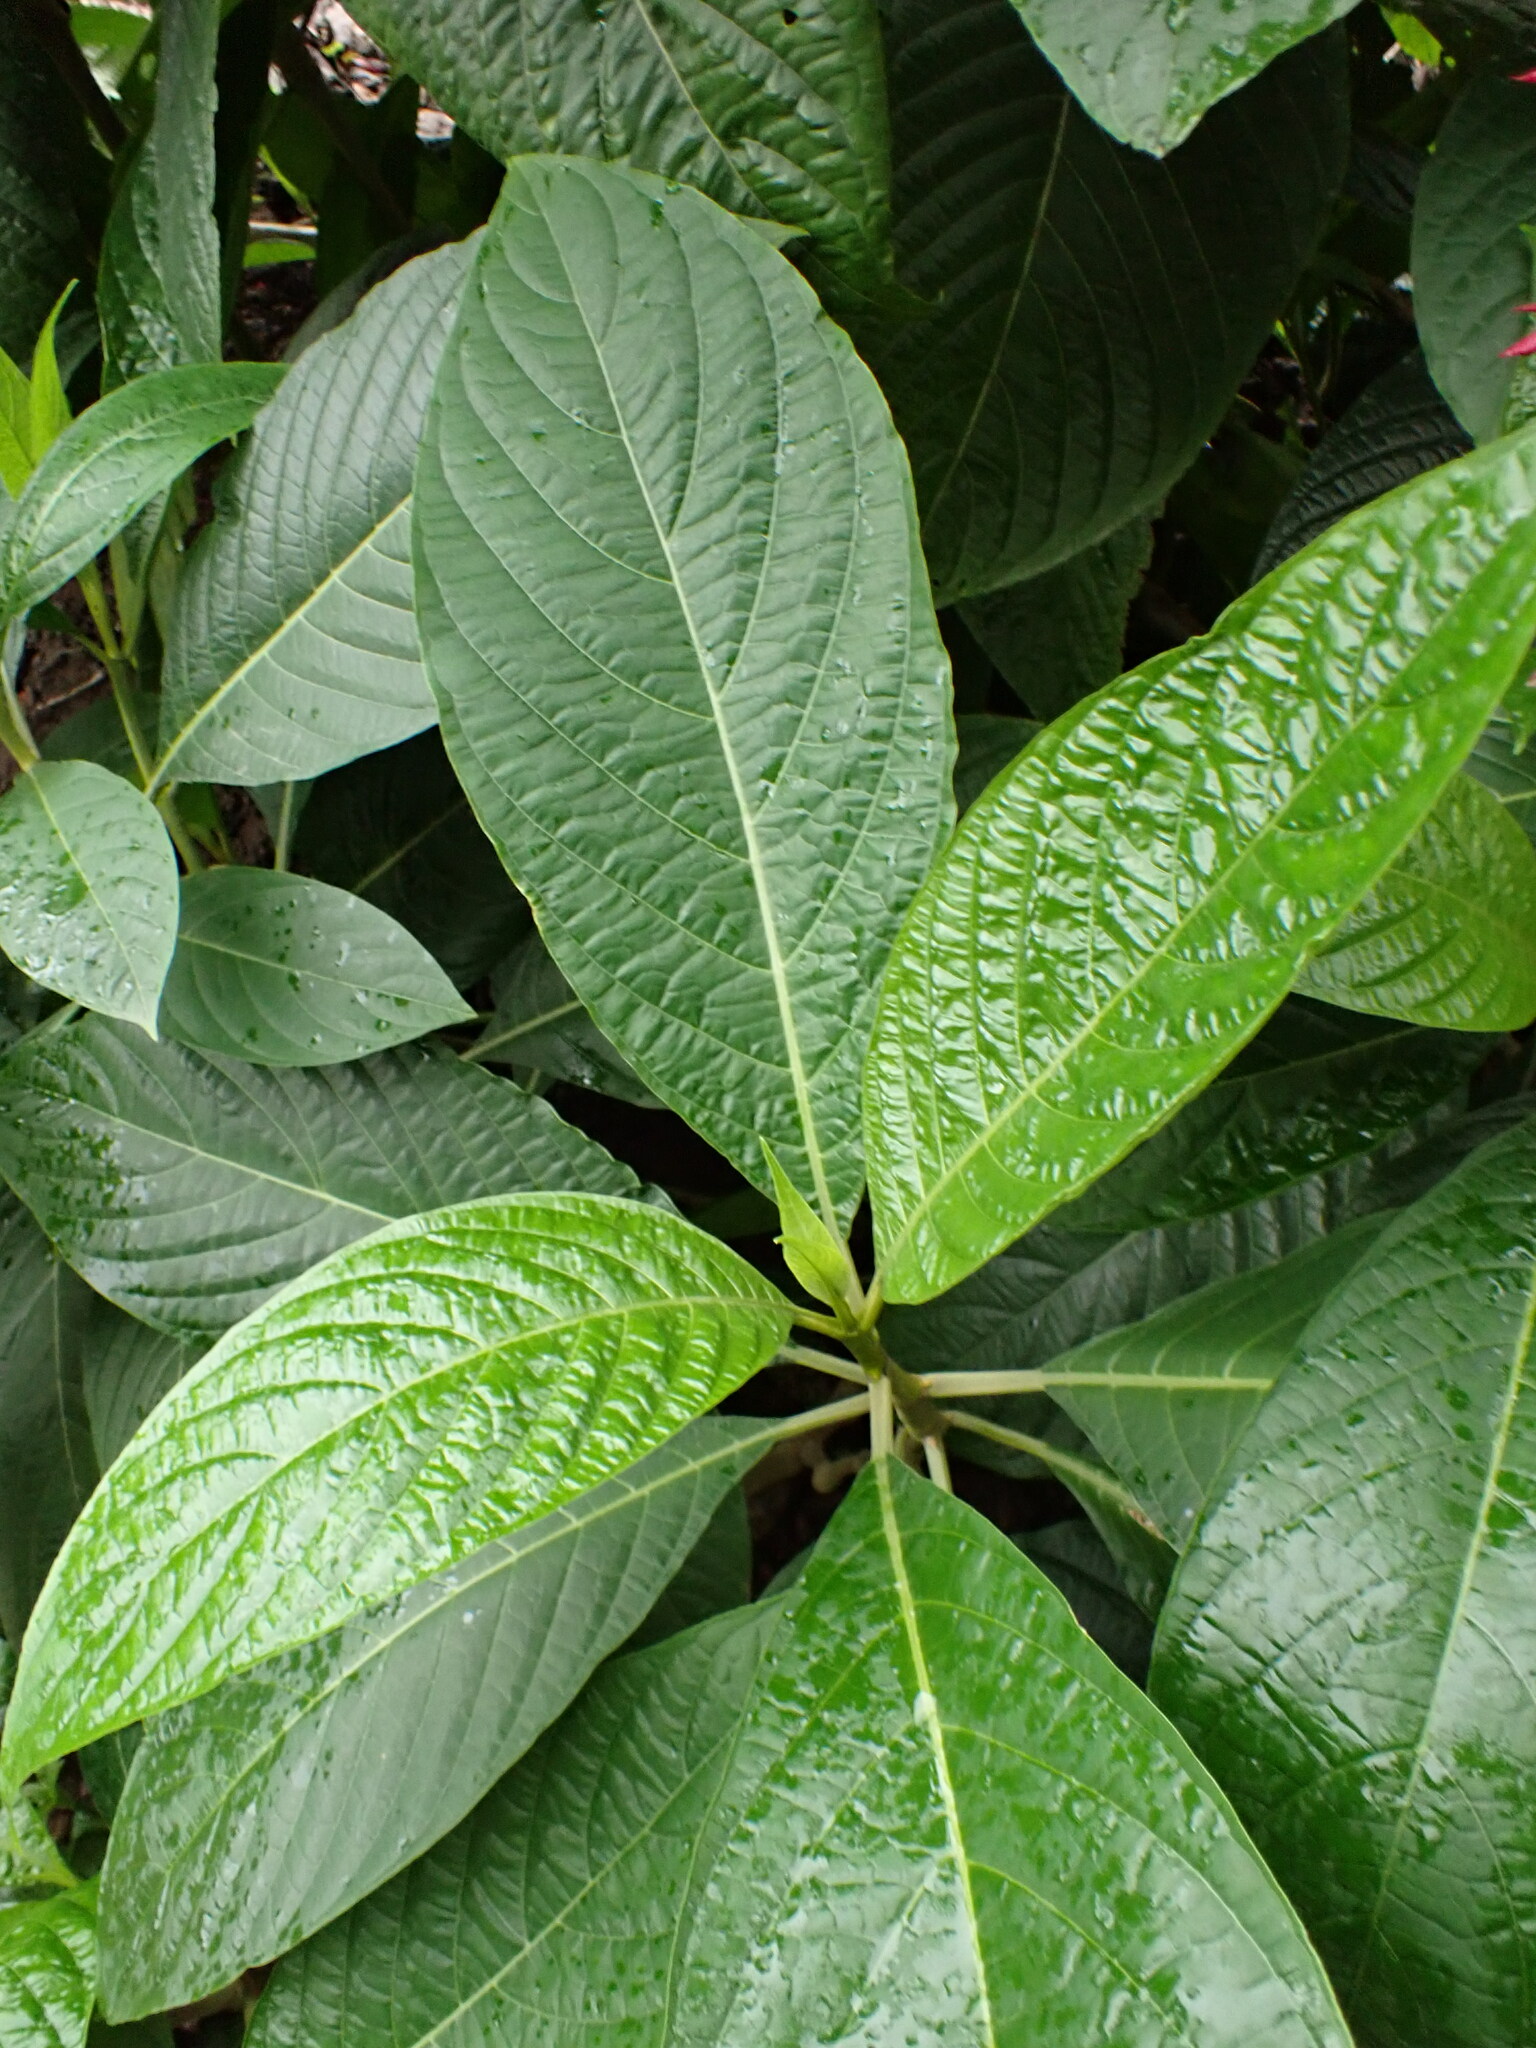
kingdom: Plantae
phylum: Tracheophyta
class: Magnoliopsida
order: Lamiales
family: Acanthaceae
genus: Megaskepasma
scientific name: Megaskepasma erythrochlamys
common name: Brazilian red-cloak
